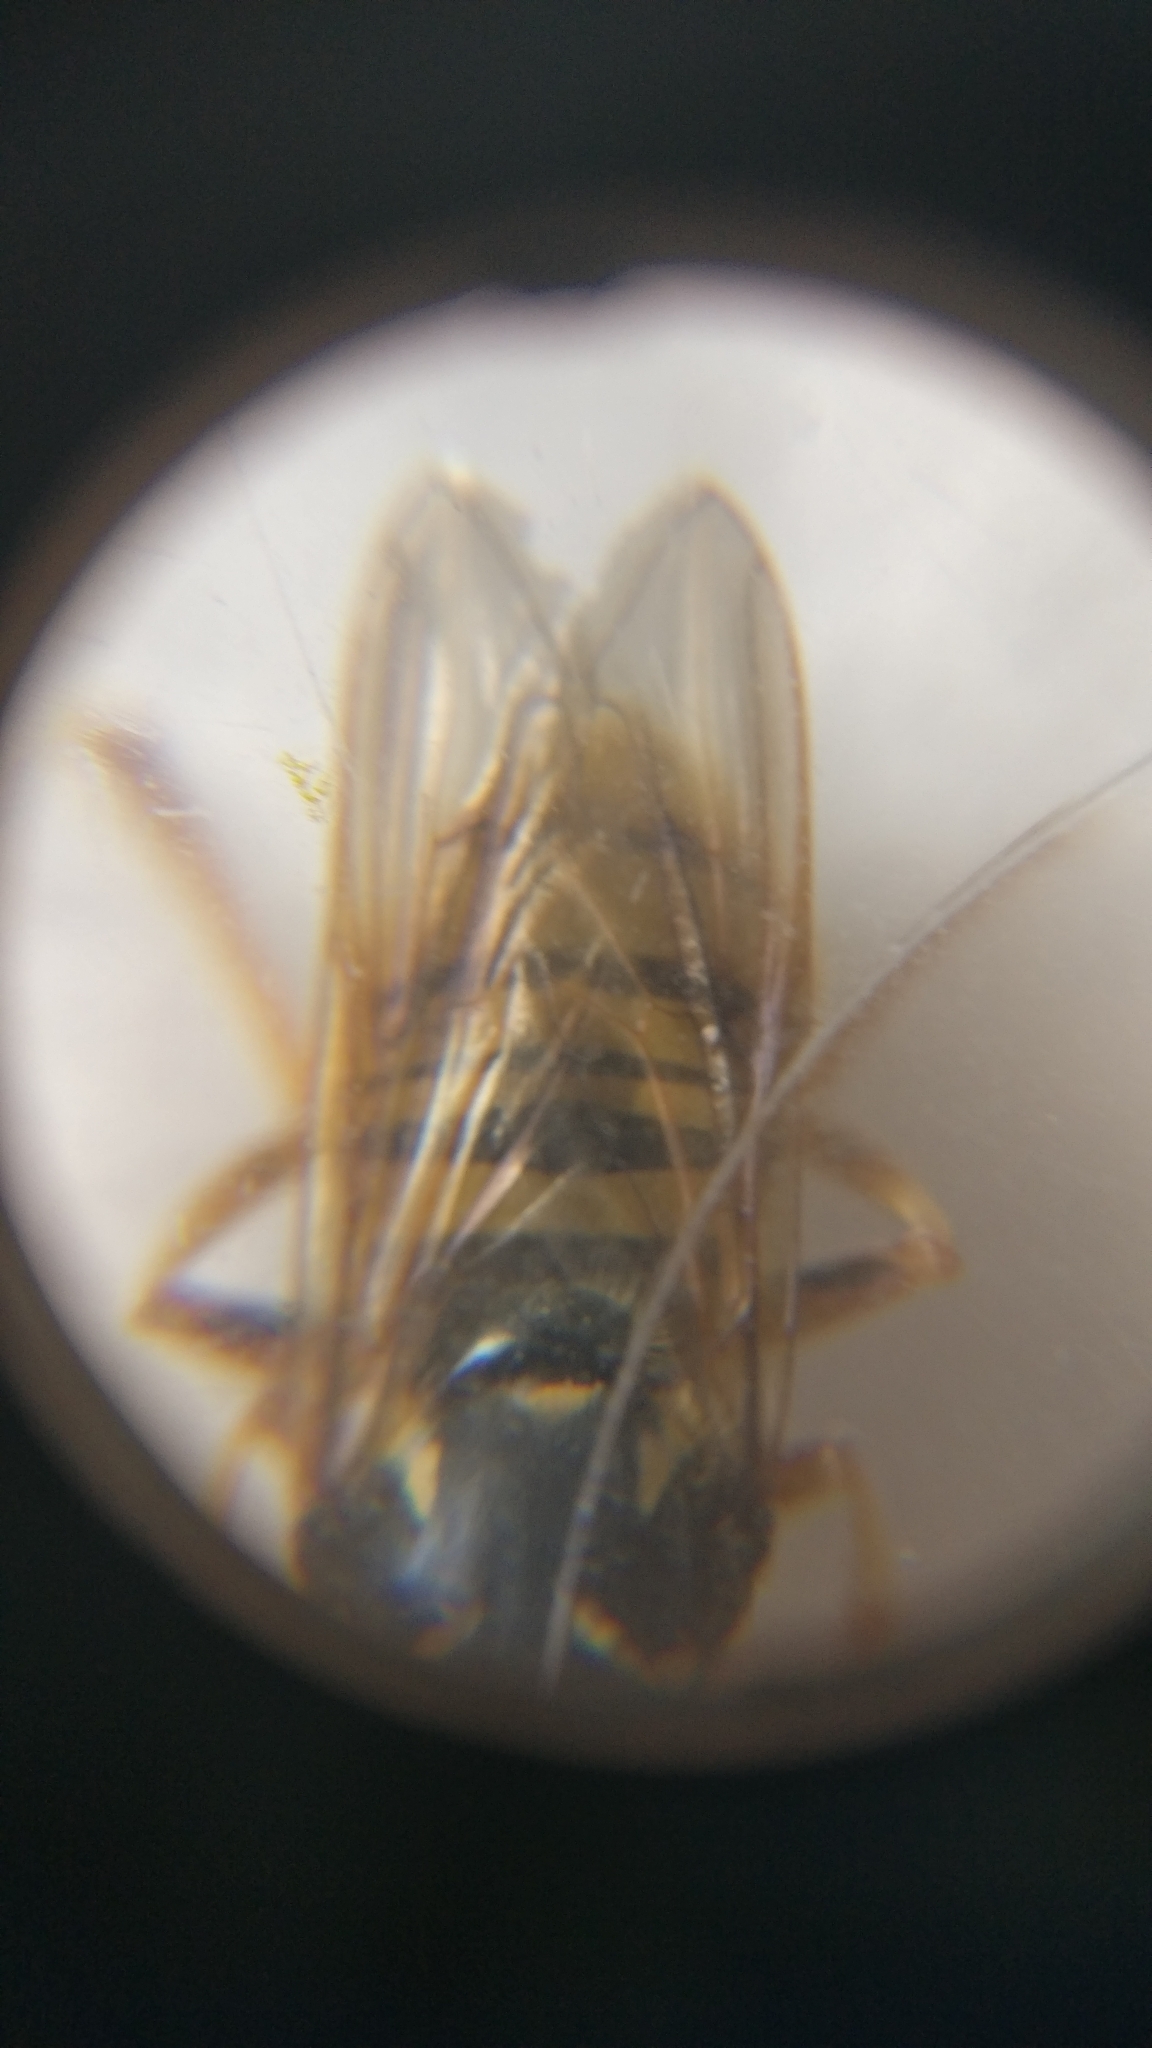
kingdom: Animalia
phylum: Arthropoda
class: Insecta
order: Diptera
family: Syrphidae
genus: Temnostoma
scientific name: Temnostoma vespiforme
